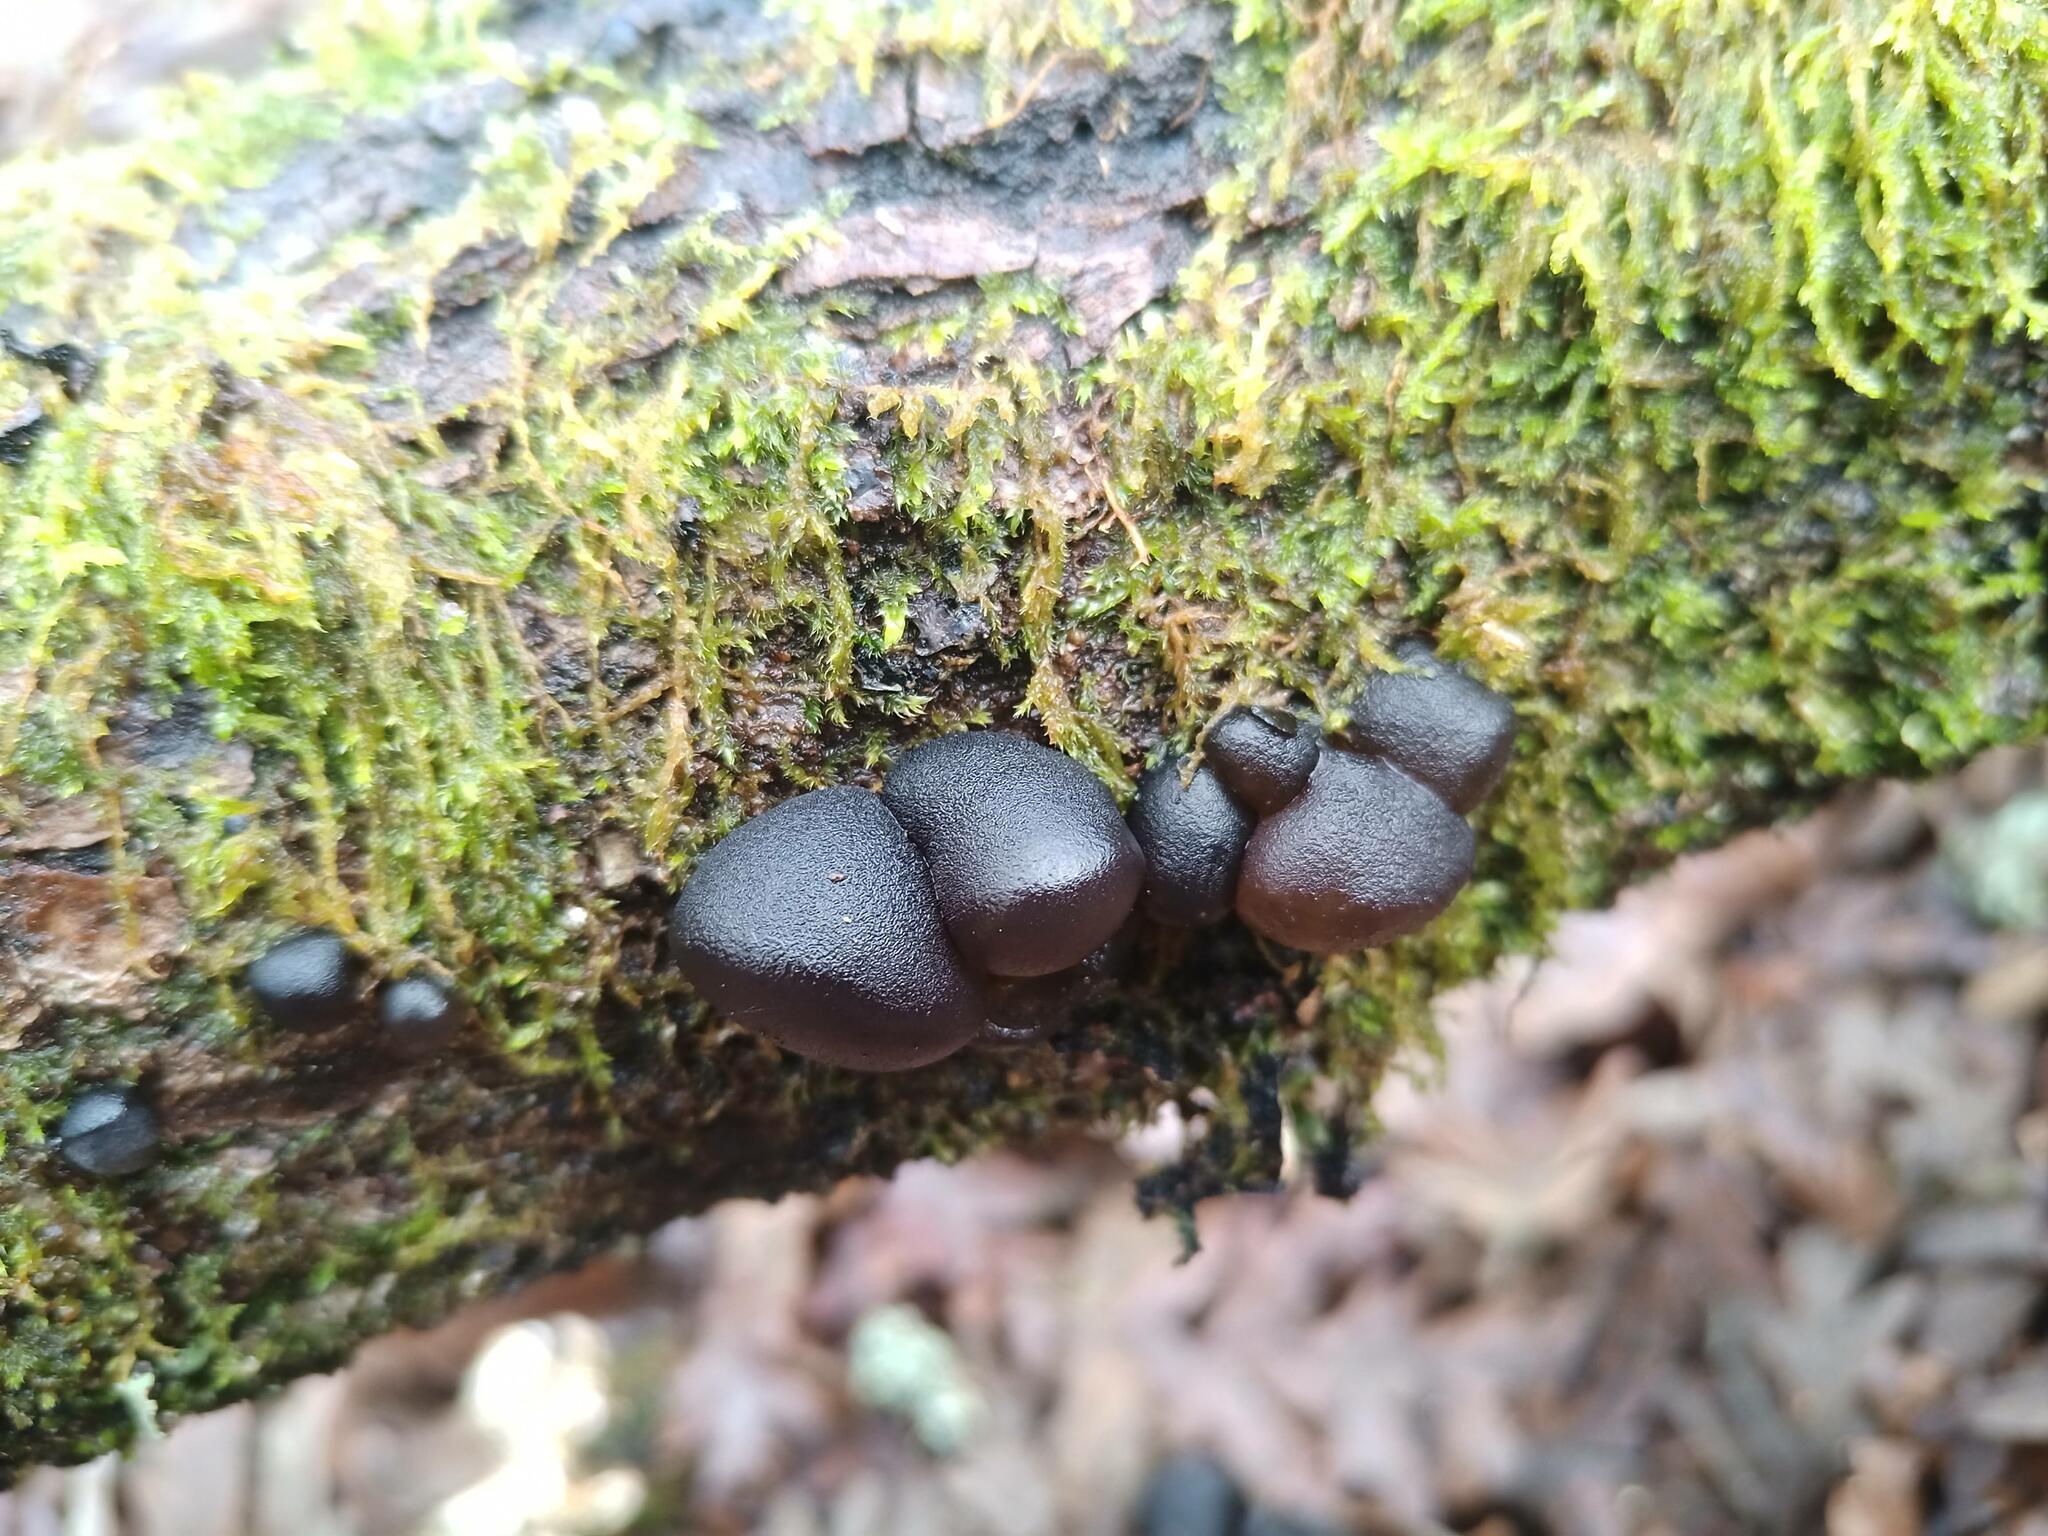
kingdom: Fungi
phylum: Basidiomycota
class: Agaricomycetes
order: Auriculariales
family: Auriculariaceae
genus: Exidia
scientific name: Exidia glandulosa
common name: Witches' butter
